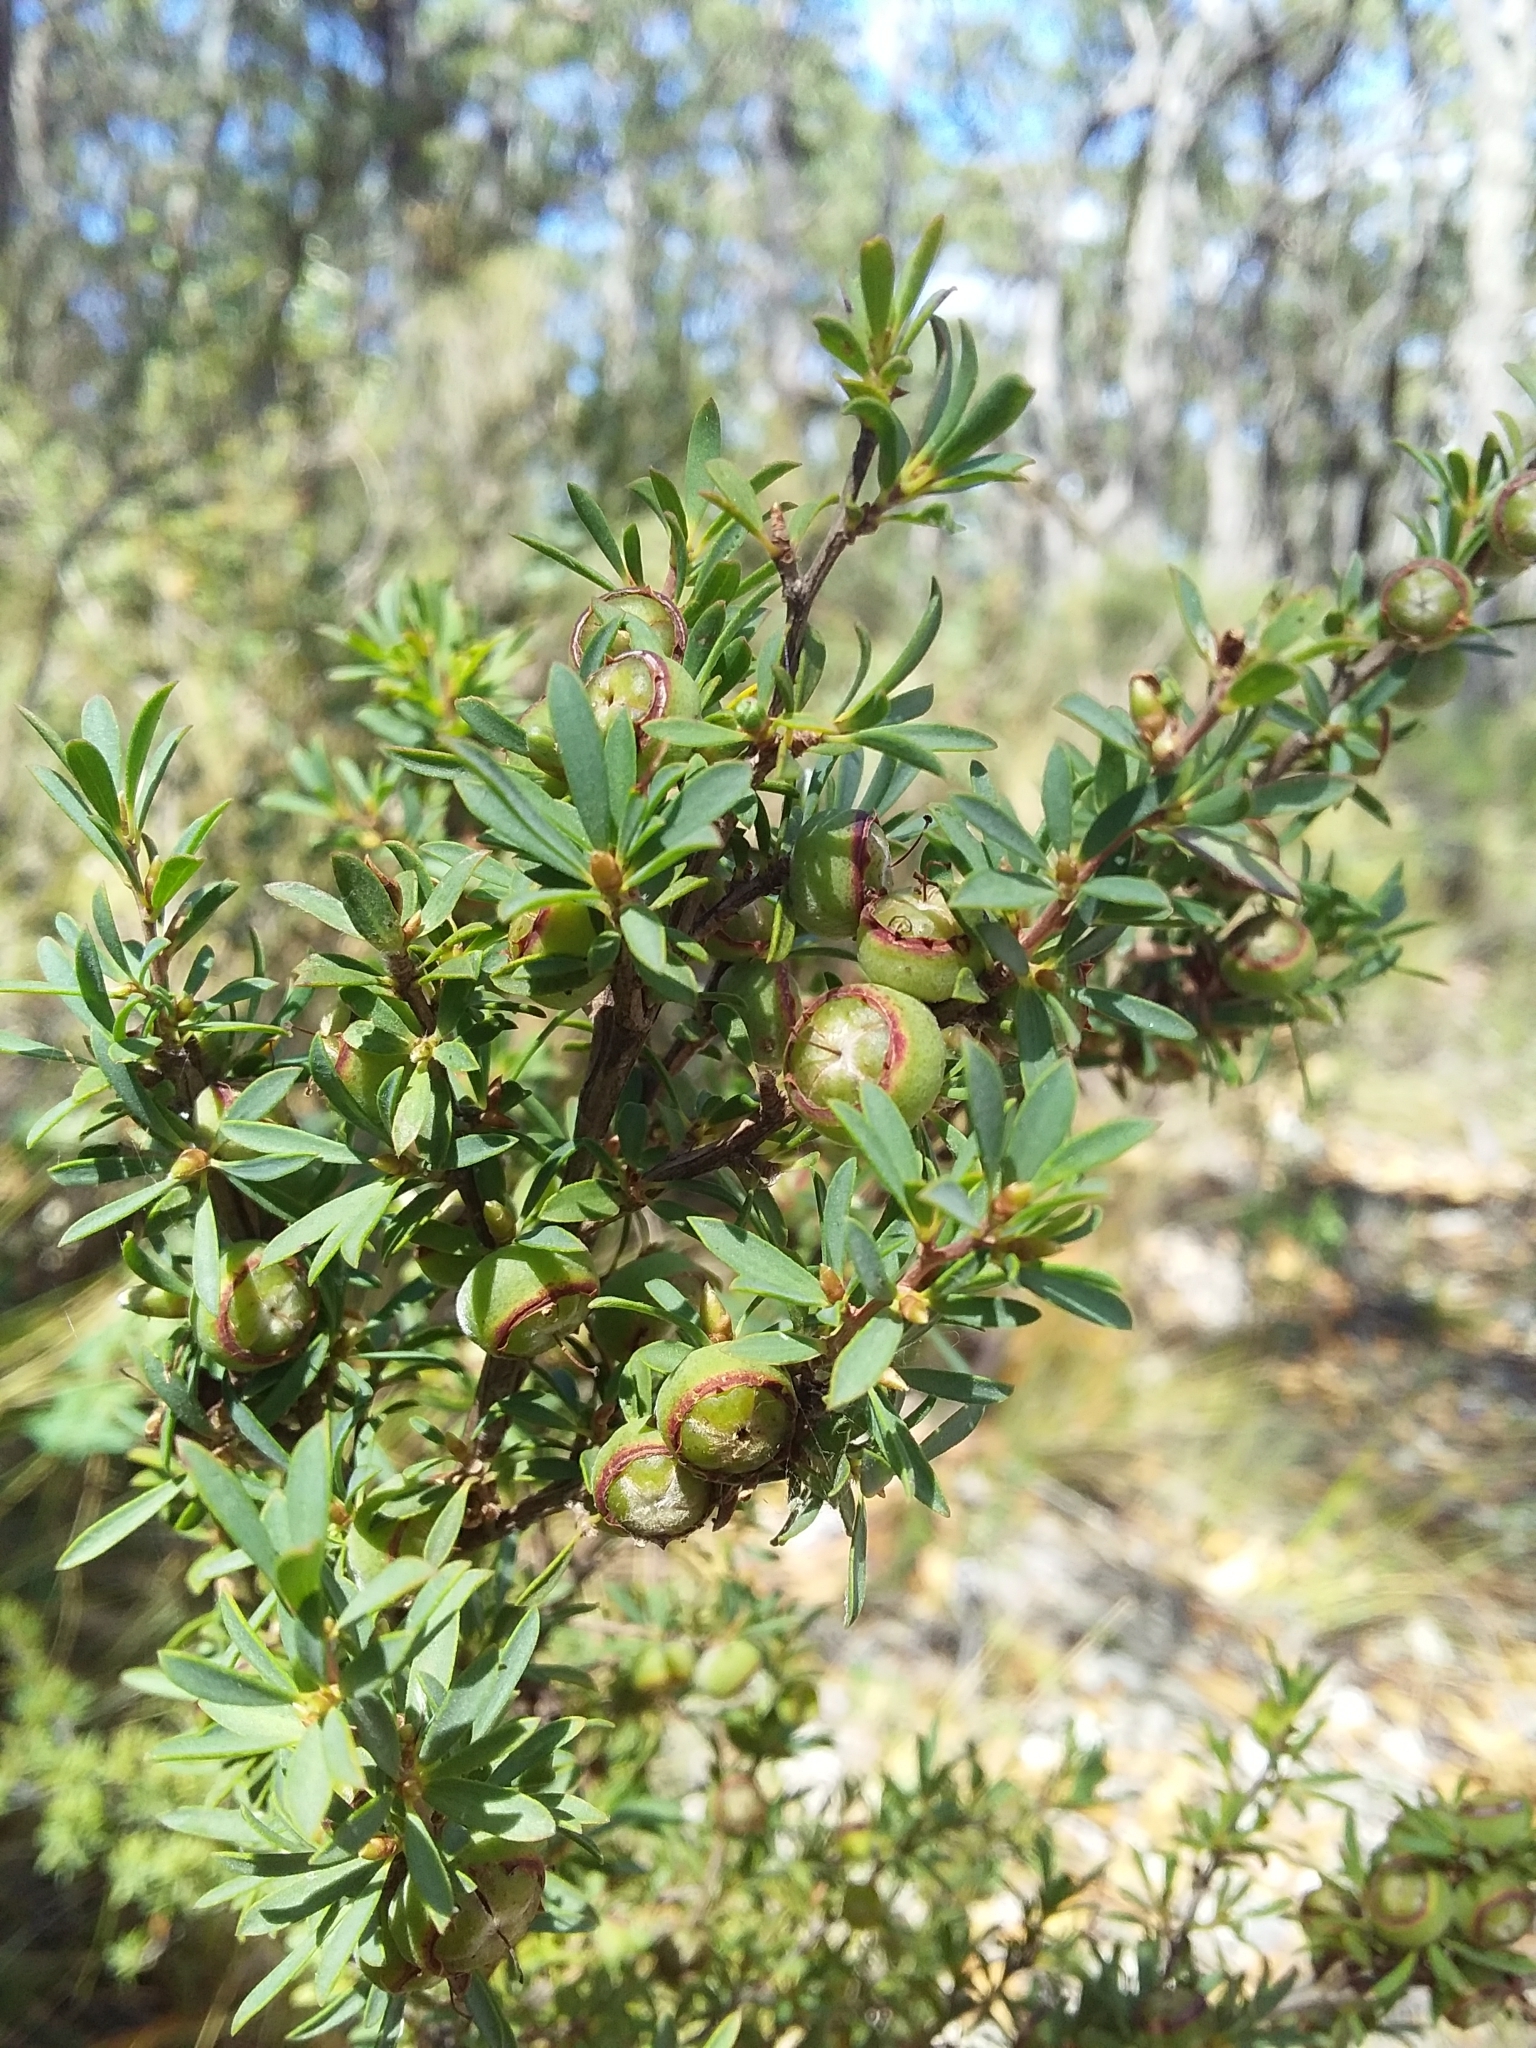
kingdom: Plantae
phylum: Tracheophyta
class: Magnoliopsida
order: Myrtales
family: Myrtaceae
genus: Leptospermum
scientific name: Leptospermum myrsinoides
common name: Heath teatree
